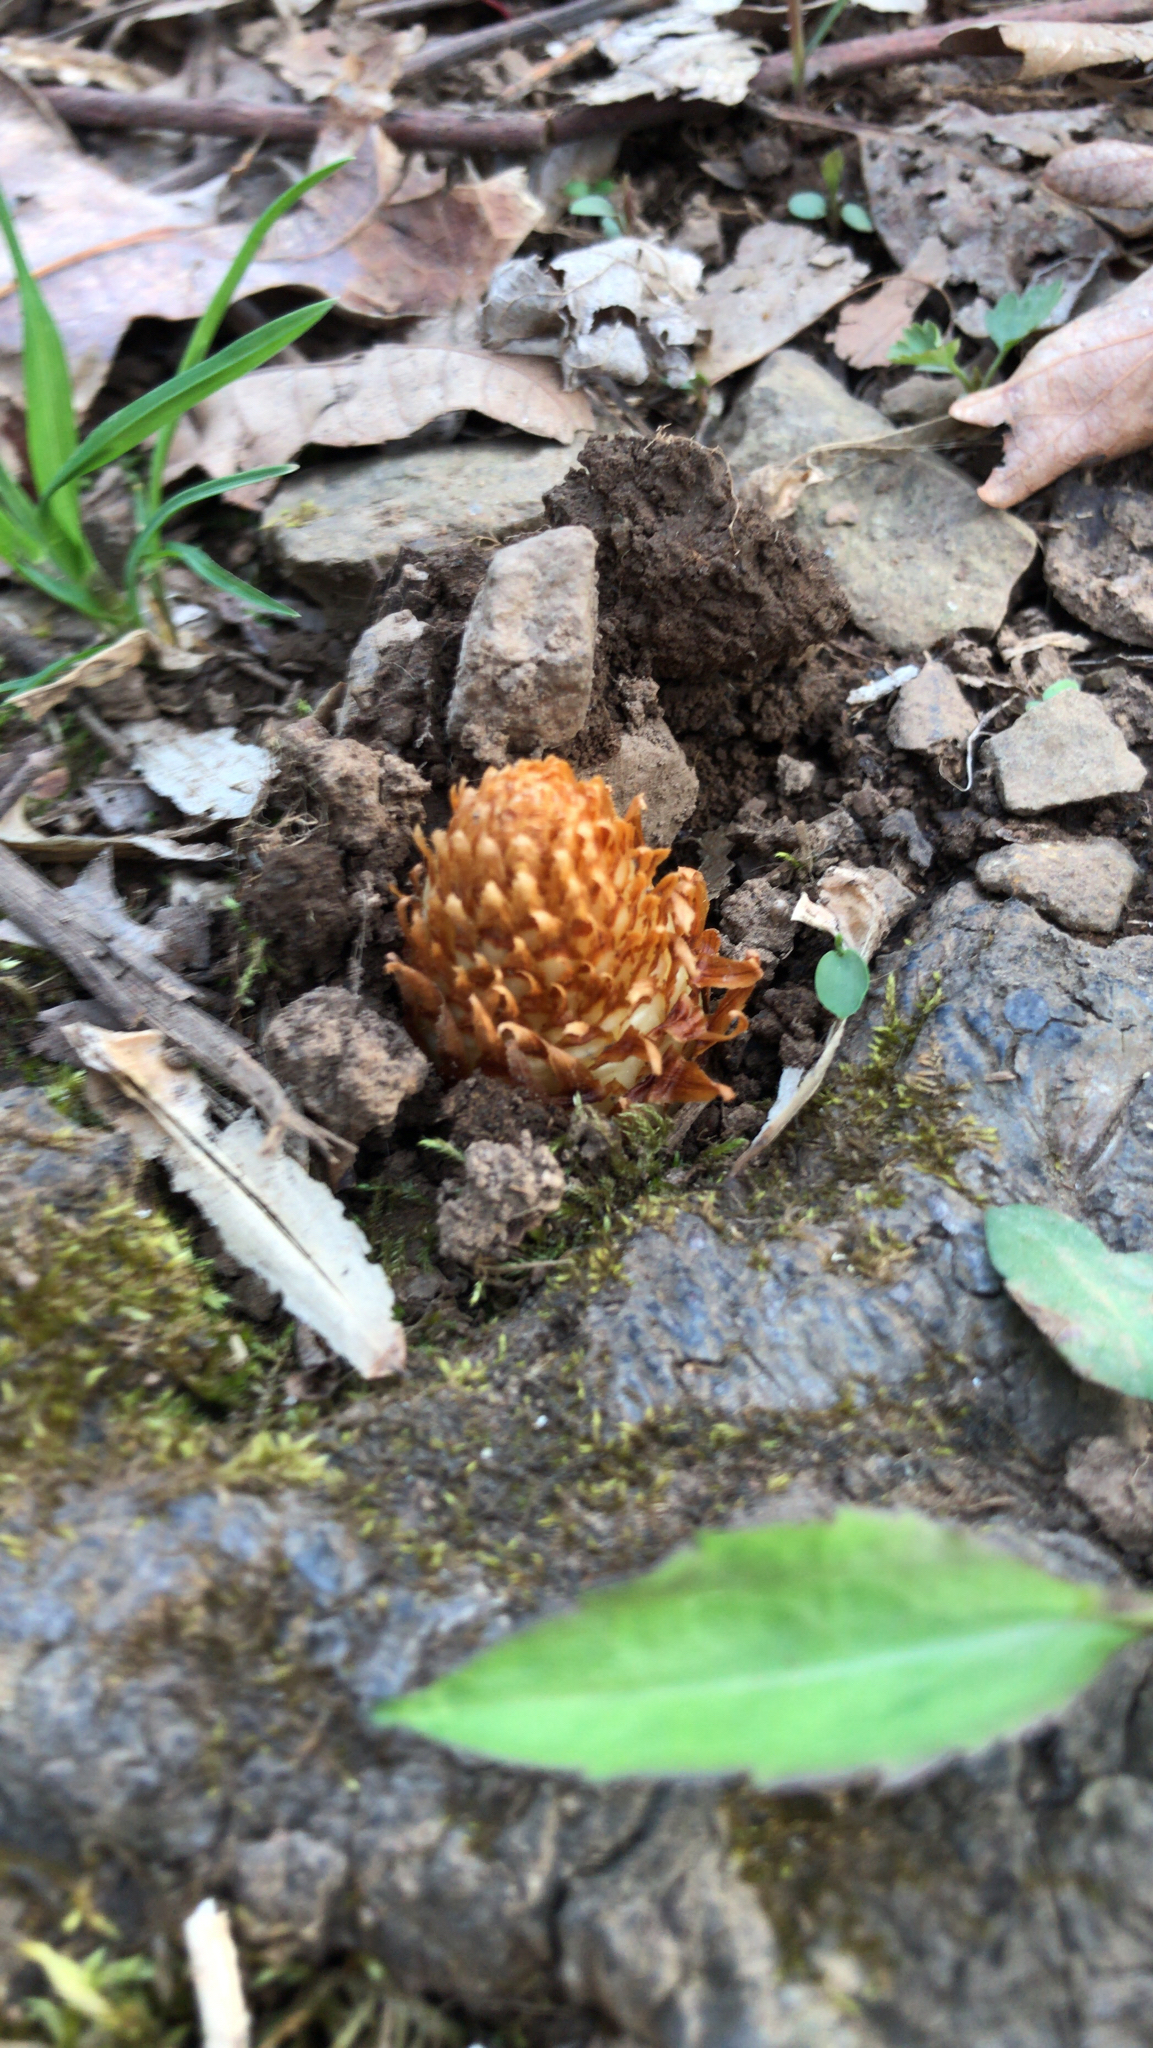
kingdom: Plantae
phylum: Tracheophyta
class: Magnoliopsida
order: Lamiales
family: Orobanchaceae
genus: Conopholis
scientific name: Conopholis americana
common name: American cancer-root
